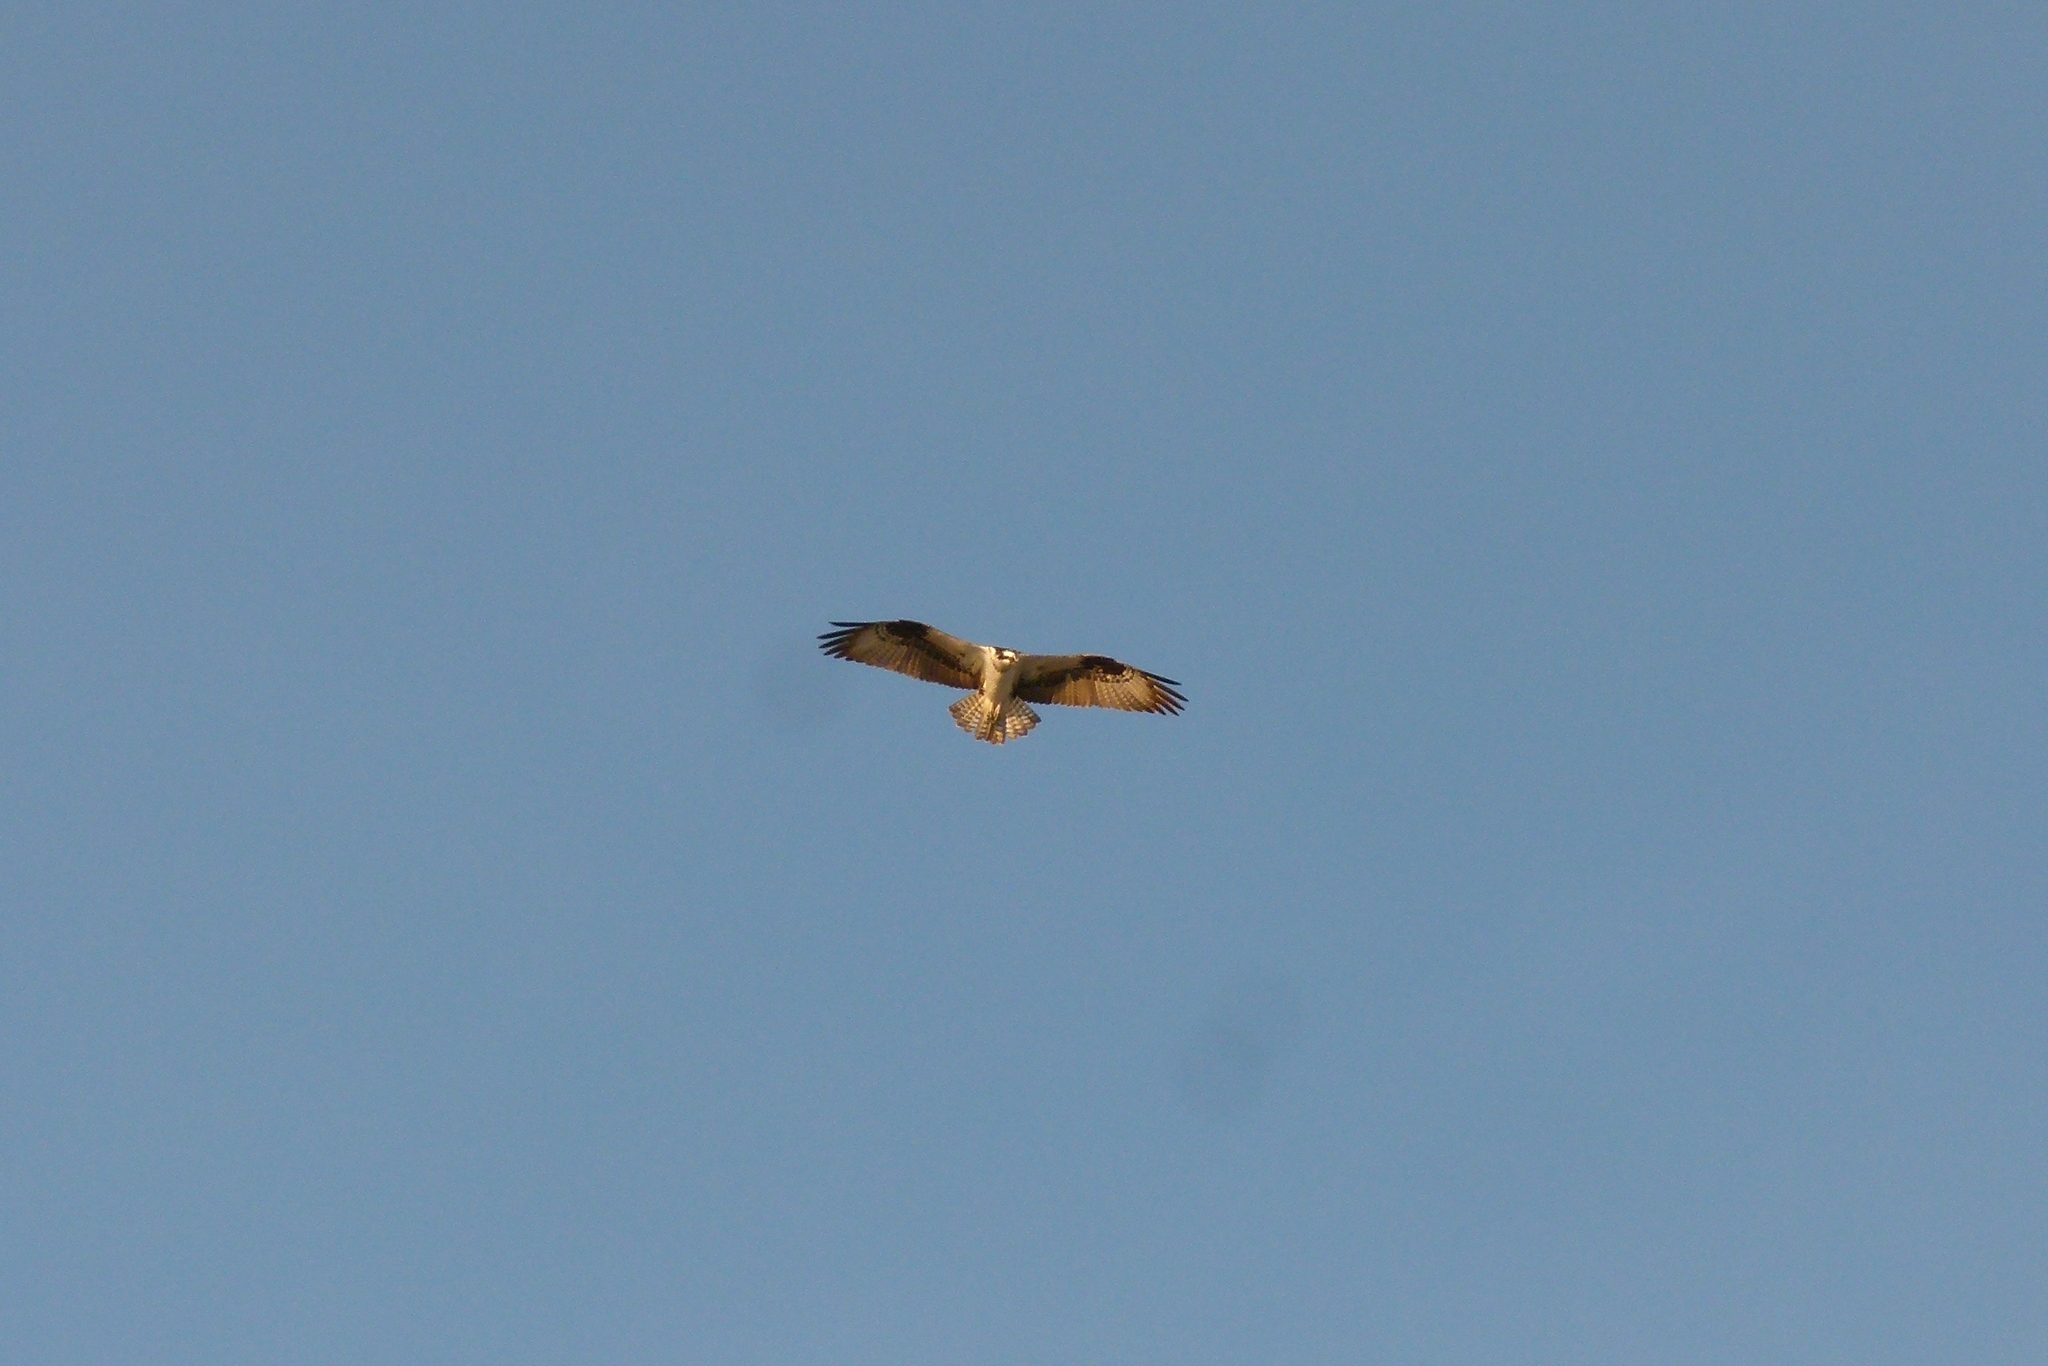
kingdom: Animalia
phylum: Chordata
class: Aves
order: Accipitriformes
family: Pandionidae
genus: Pandion
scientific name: Pandion haliaetus
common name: Osprey
